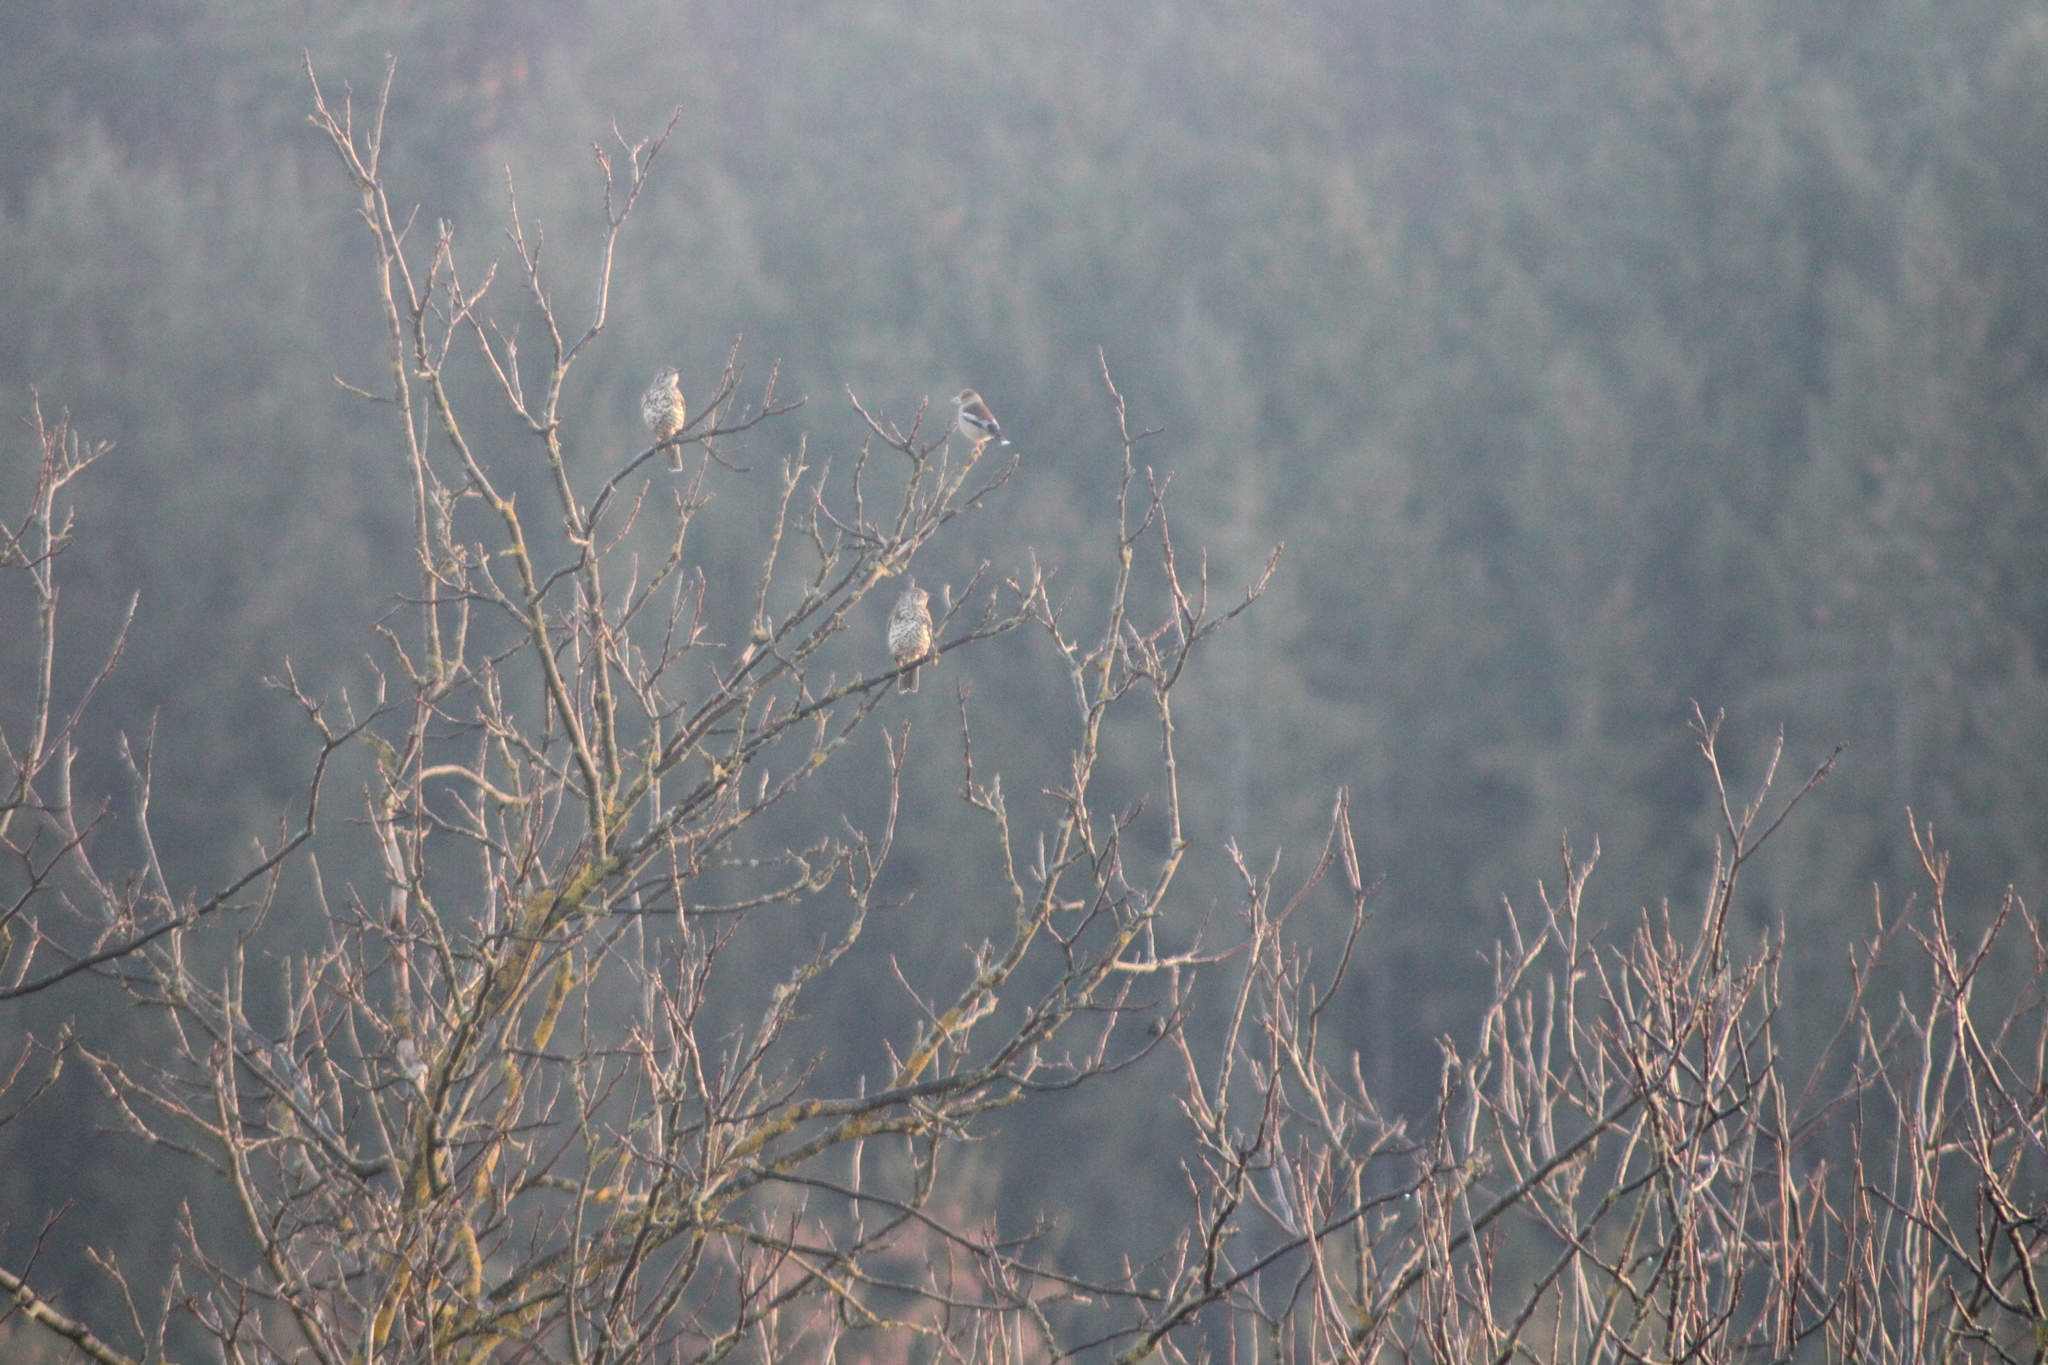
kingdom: Animalia
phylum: Chordata
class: Aves
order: Passeriformes
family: Fringillidae
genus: Coccothraustes
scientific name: Coccothraustes coccothraustes
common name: Hawfinch
